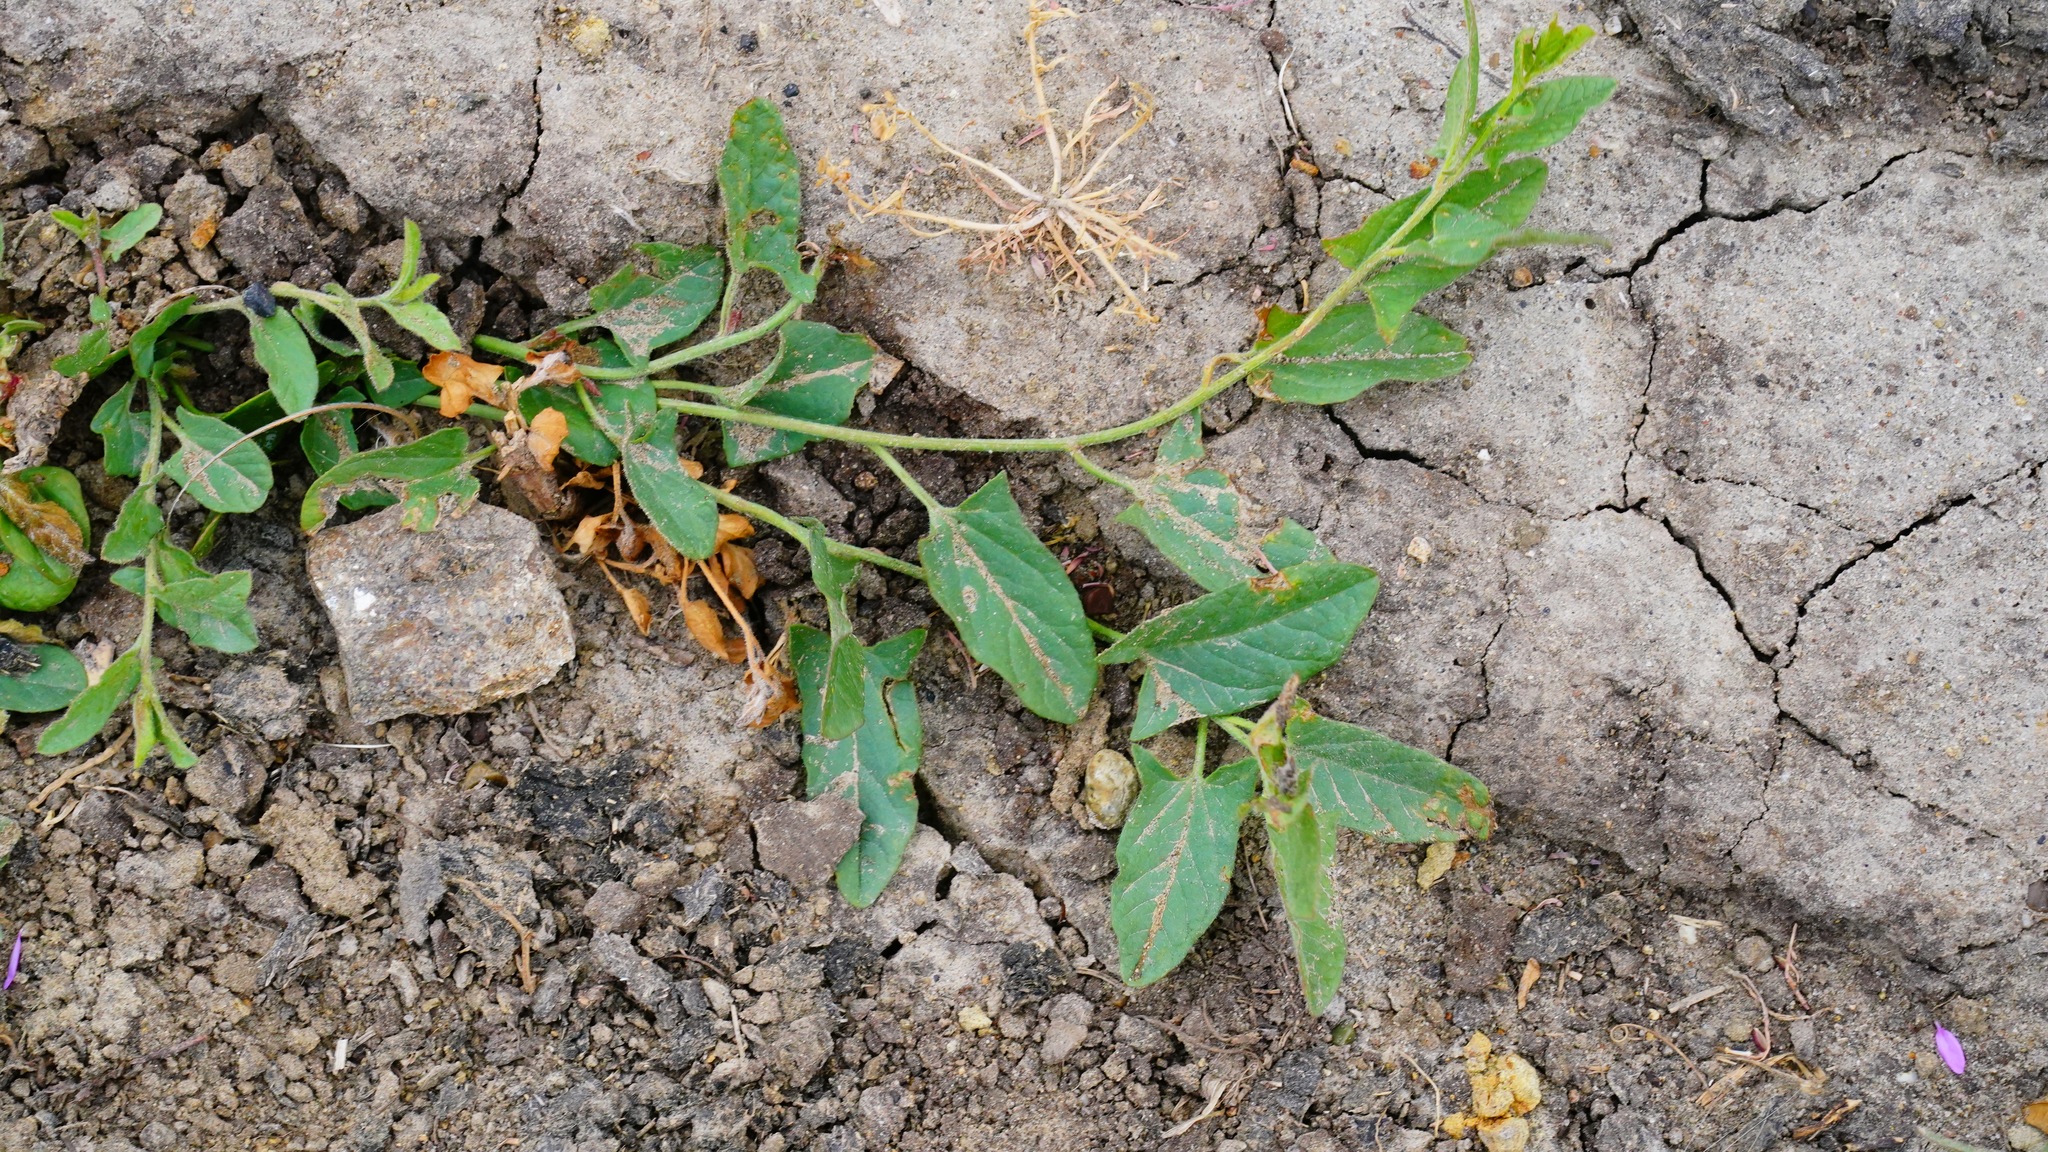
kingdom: Plantae
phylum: Tracheophyta
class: Magnoliopsida
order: Solanales
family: Convolvulaceae
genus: Convolvulus
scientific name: Convolvulus arvensis
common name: Field bindweed
